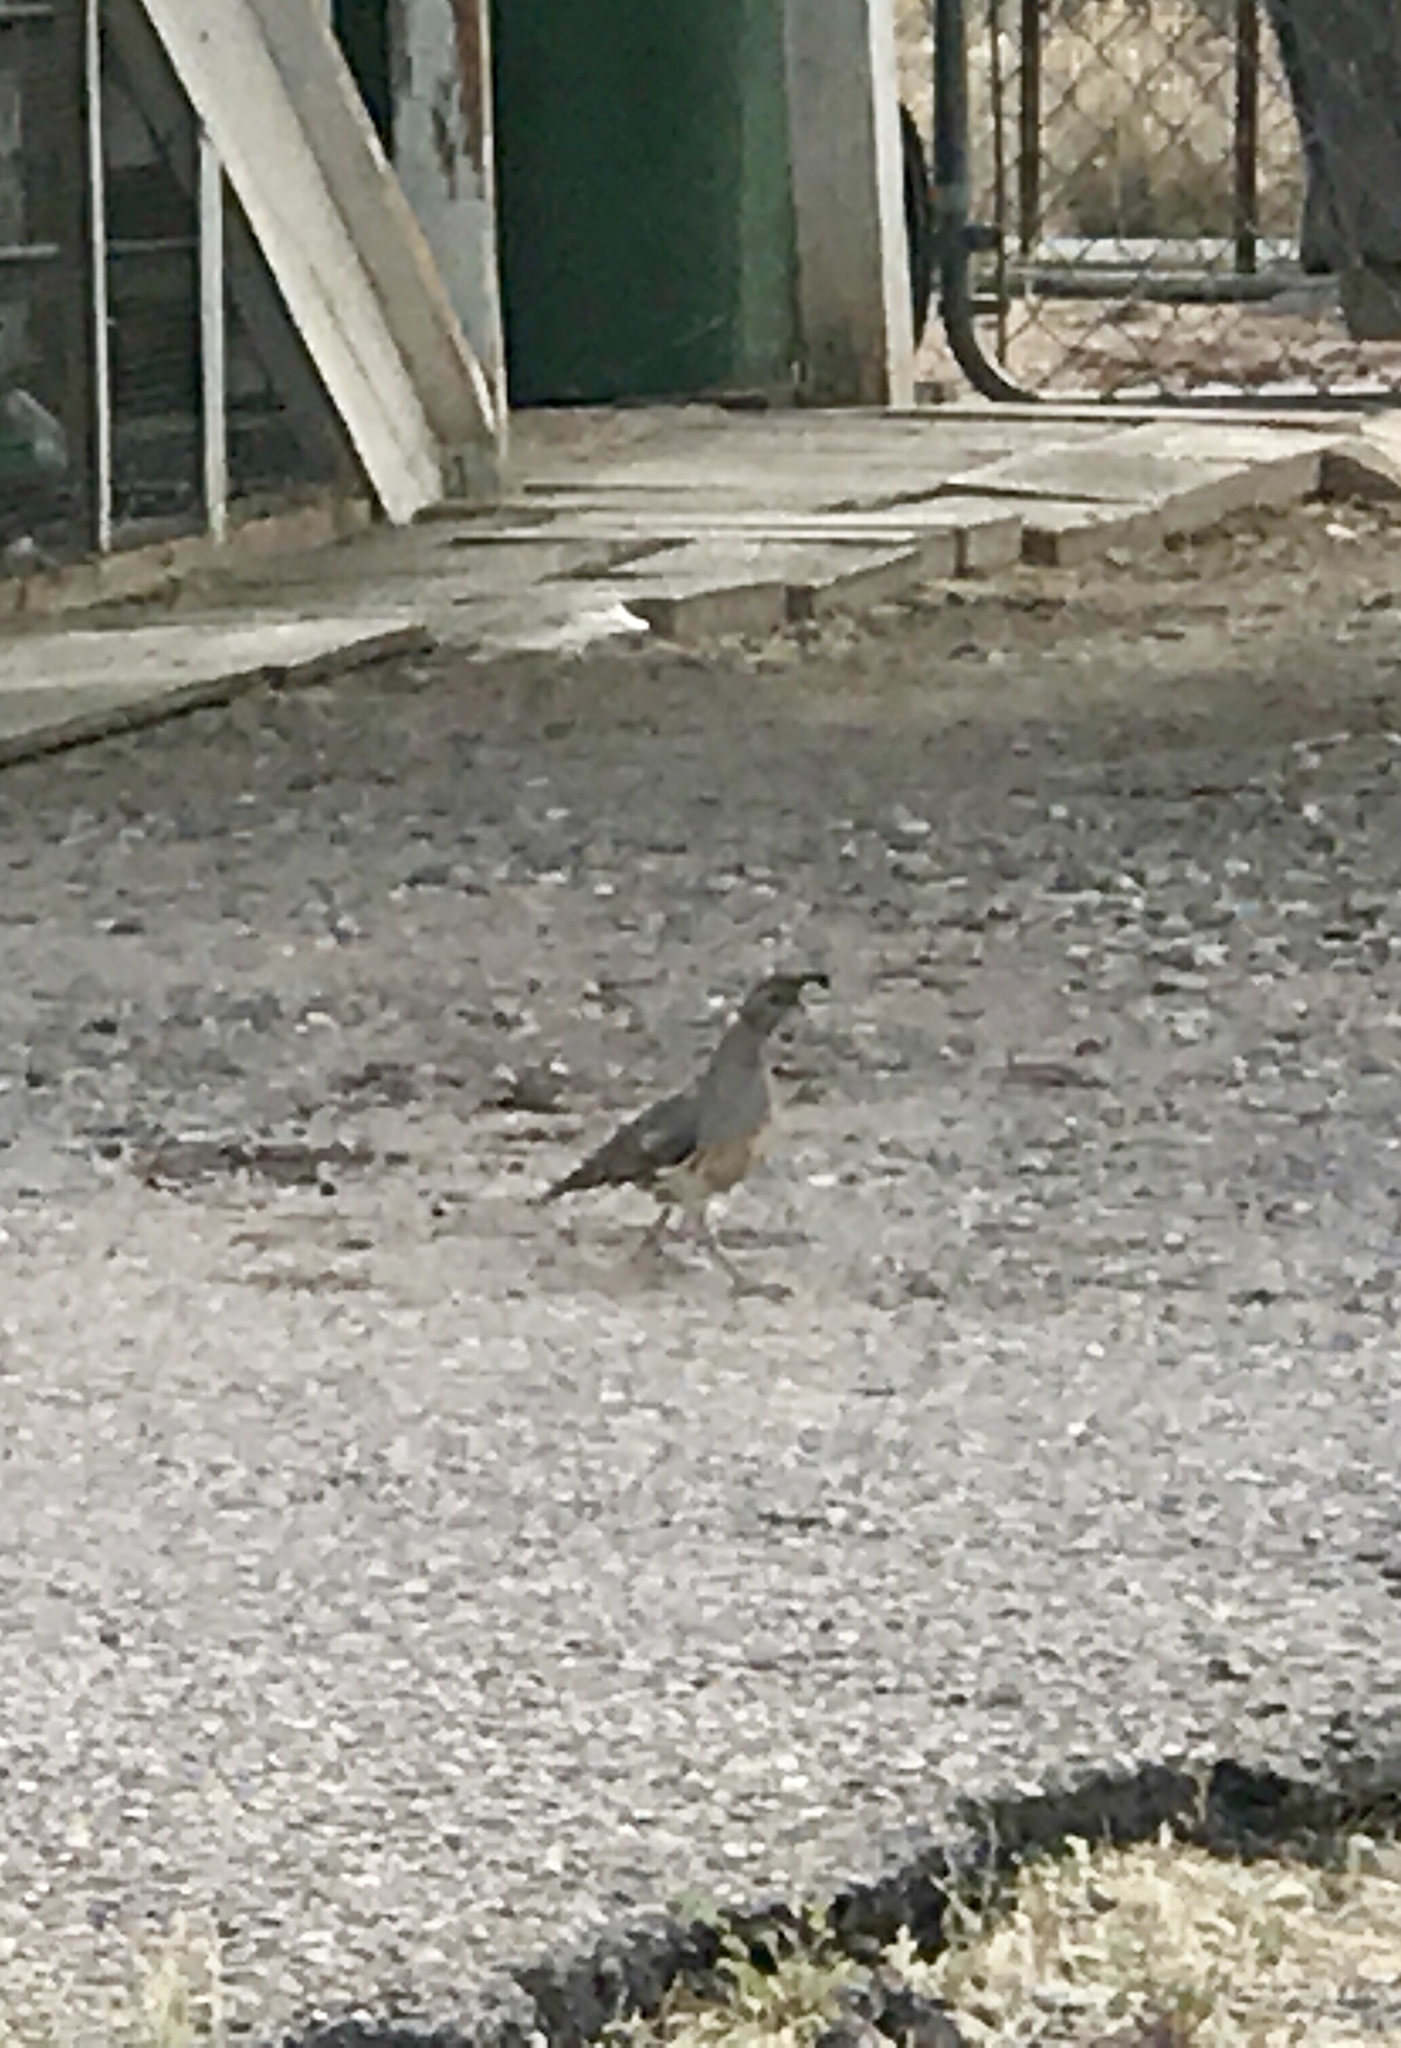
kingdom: Animalia
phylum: Chordata
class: Aves
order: Galliformes
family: Odontophoridae
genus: Callipepla
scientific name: Callipepla gambelii
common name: Gambel's quail
